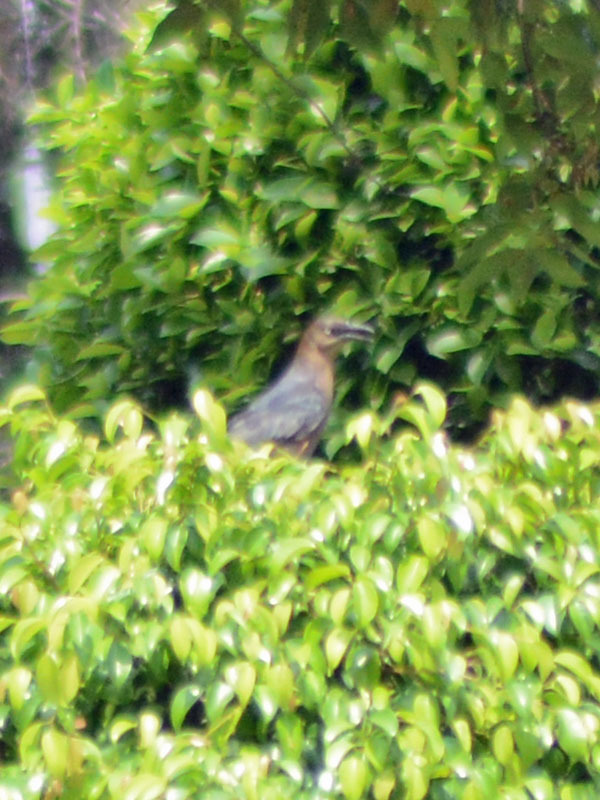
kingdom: Animalia
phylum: Chordata
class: Aves
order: Passeriformes
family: Icteridae
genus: Quiscalus
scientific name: Quiscalus mexicanus
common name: Great-tailed grackle
